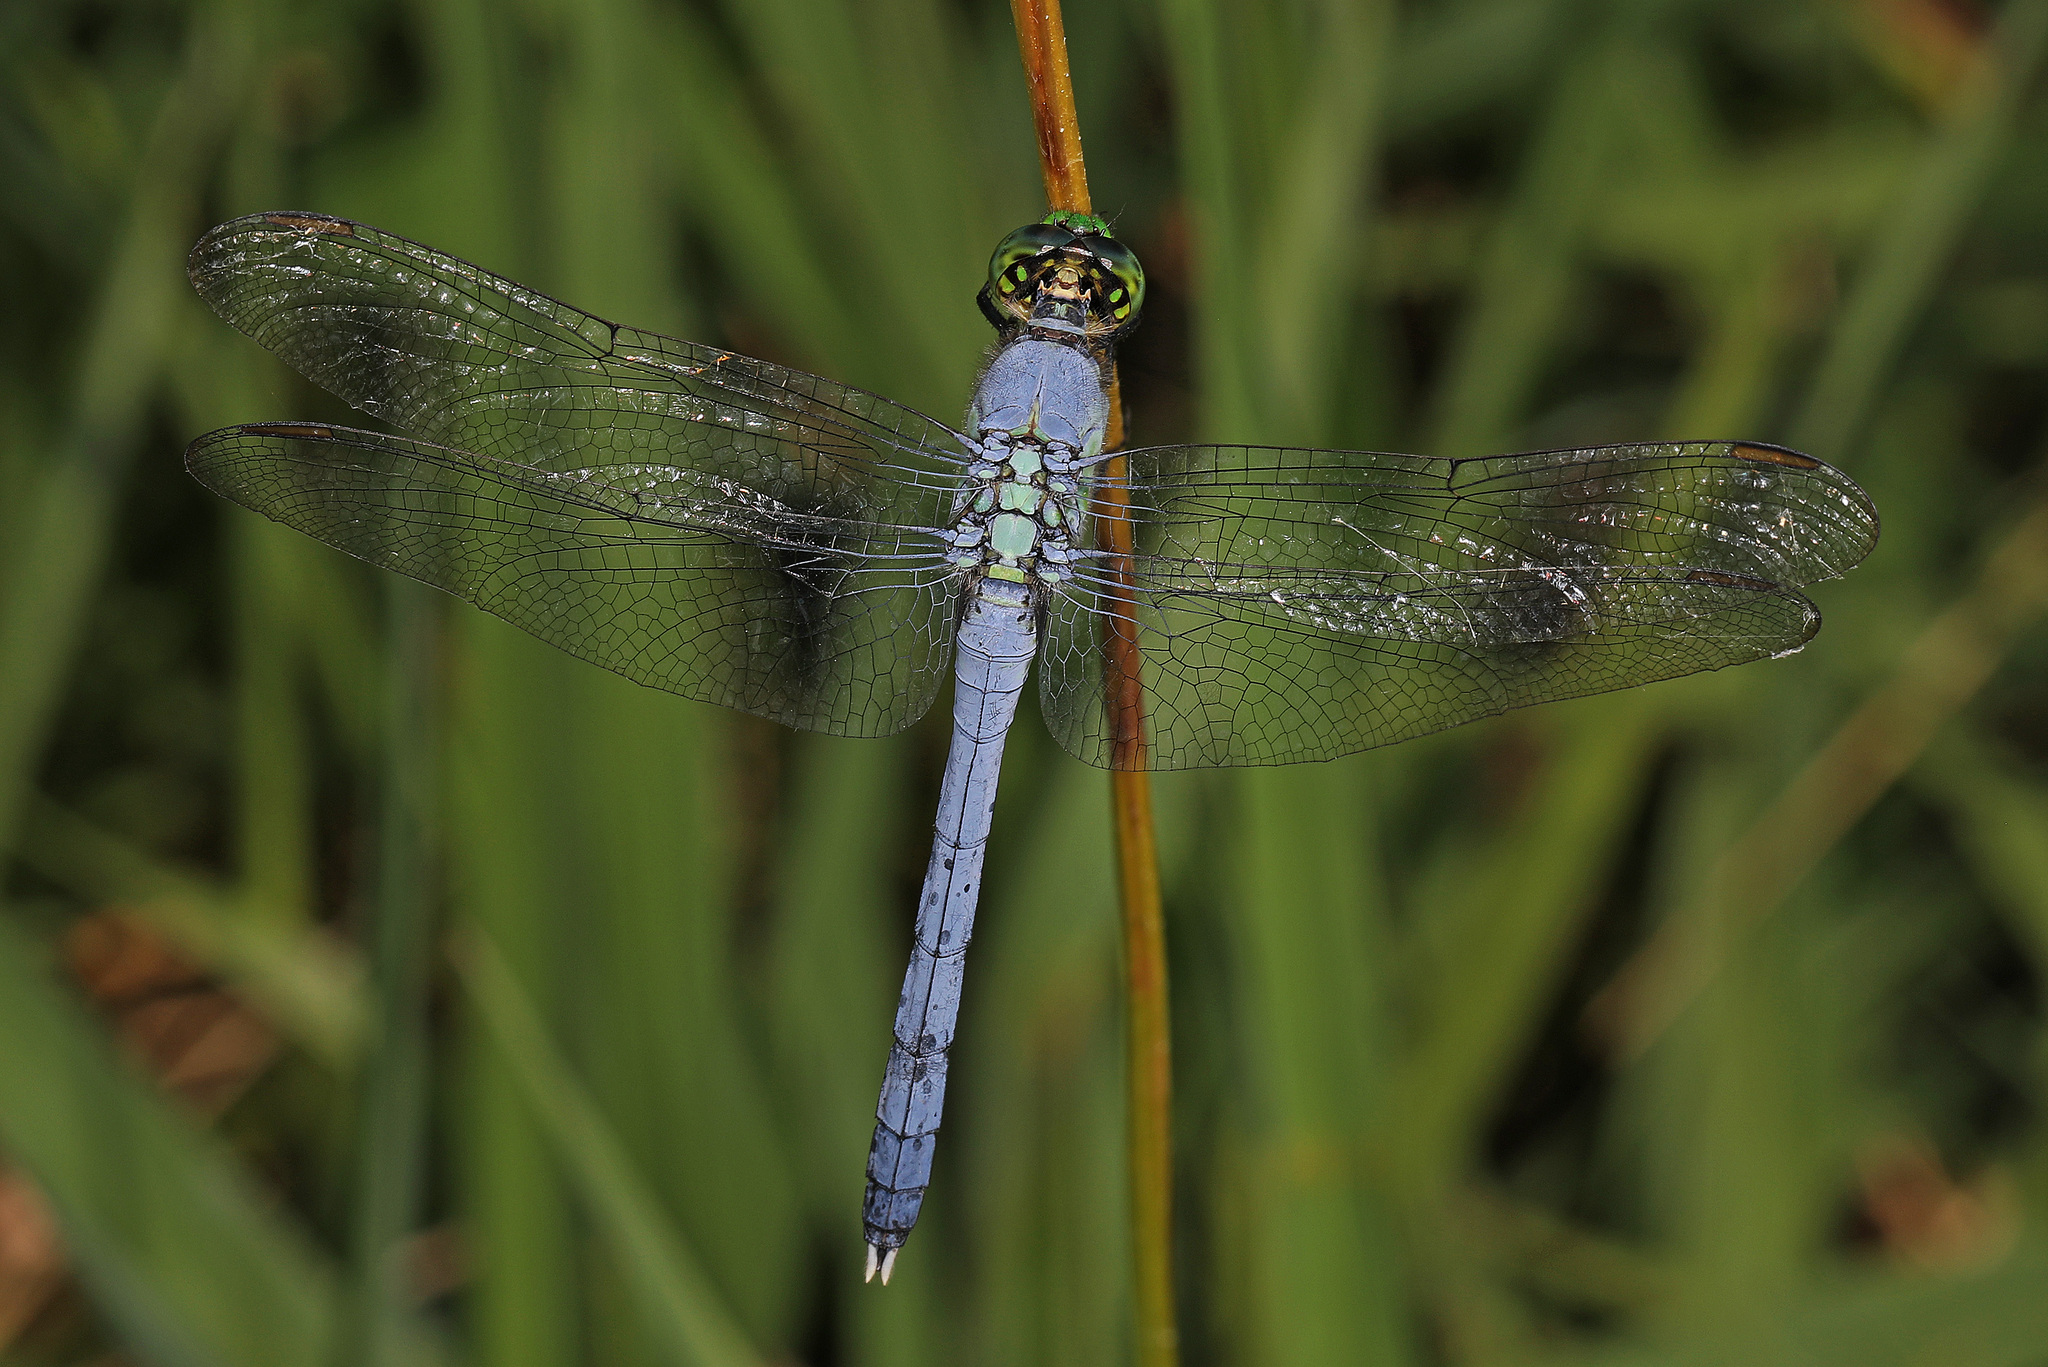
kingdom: Animalia
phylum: Arthropoda
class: Insecta
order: Odonata
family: Libellulidae
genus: Erythemis
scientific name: Erythemis simplicicollis
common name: Eastern pondhawk
